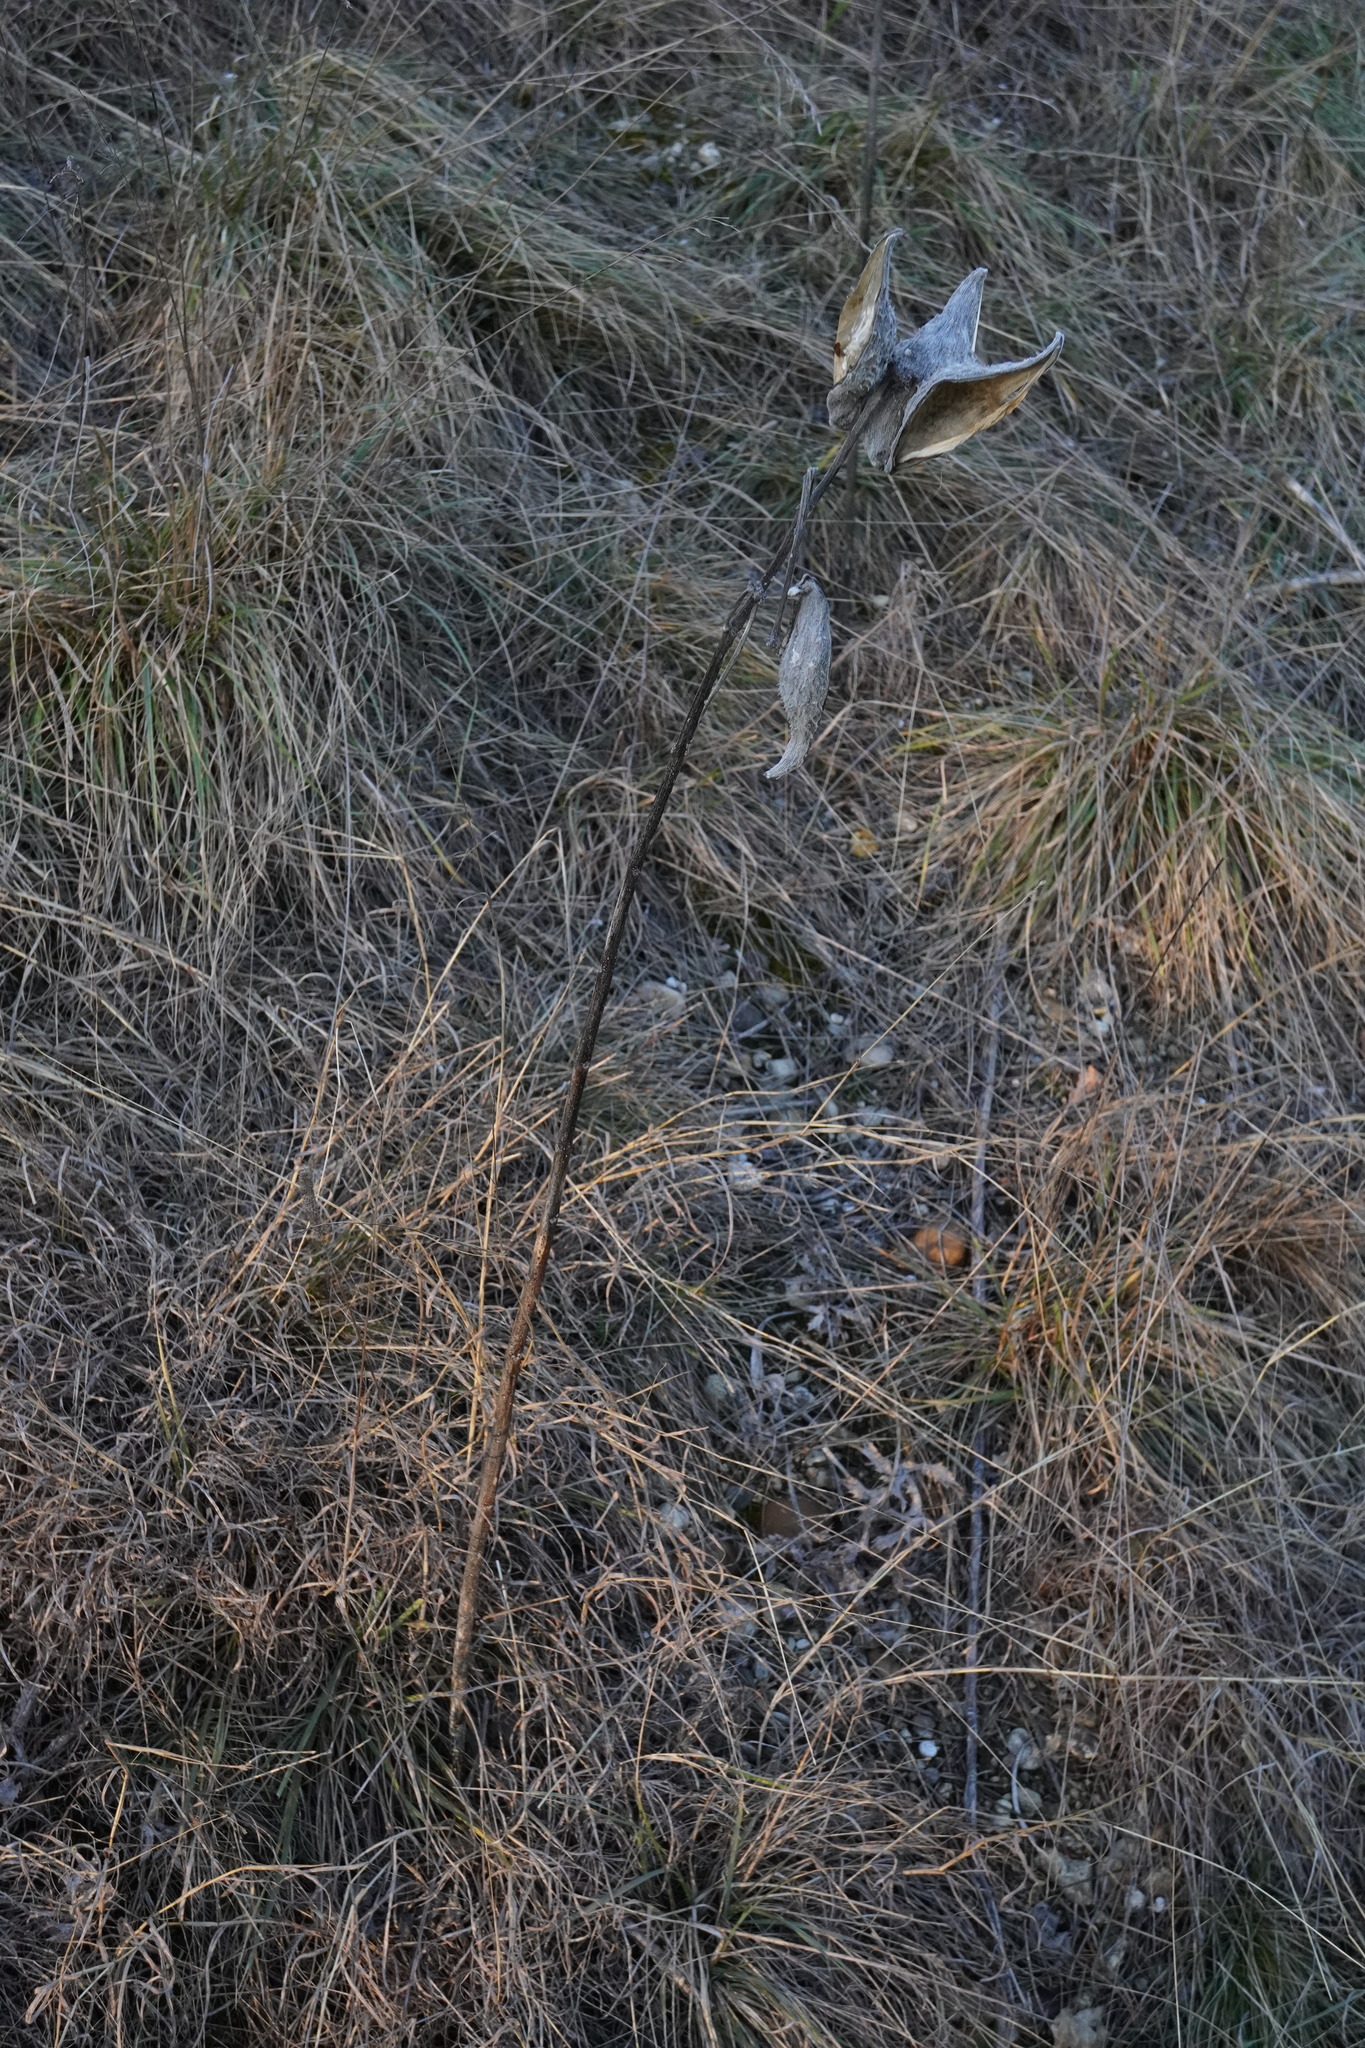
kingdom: Plantae
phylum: Tracheophyta
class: Magnoliopsida
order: Gentianales
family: Apocynaceae
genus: Asclepias
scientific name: Asclepias syriaca
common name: Common milkweed
